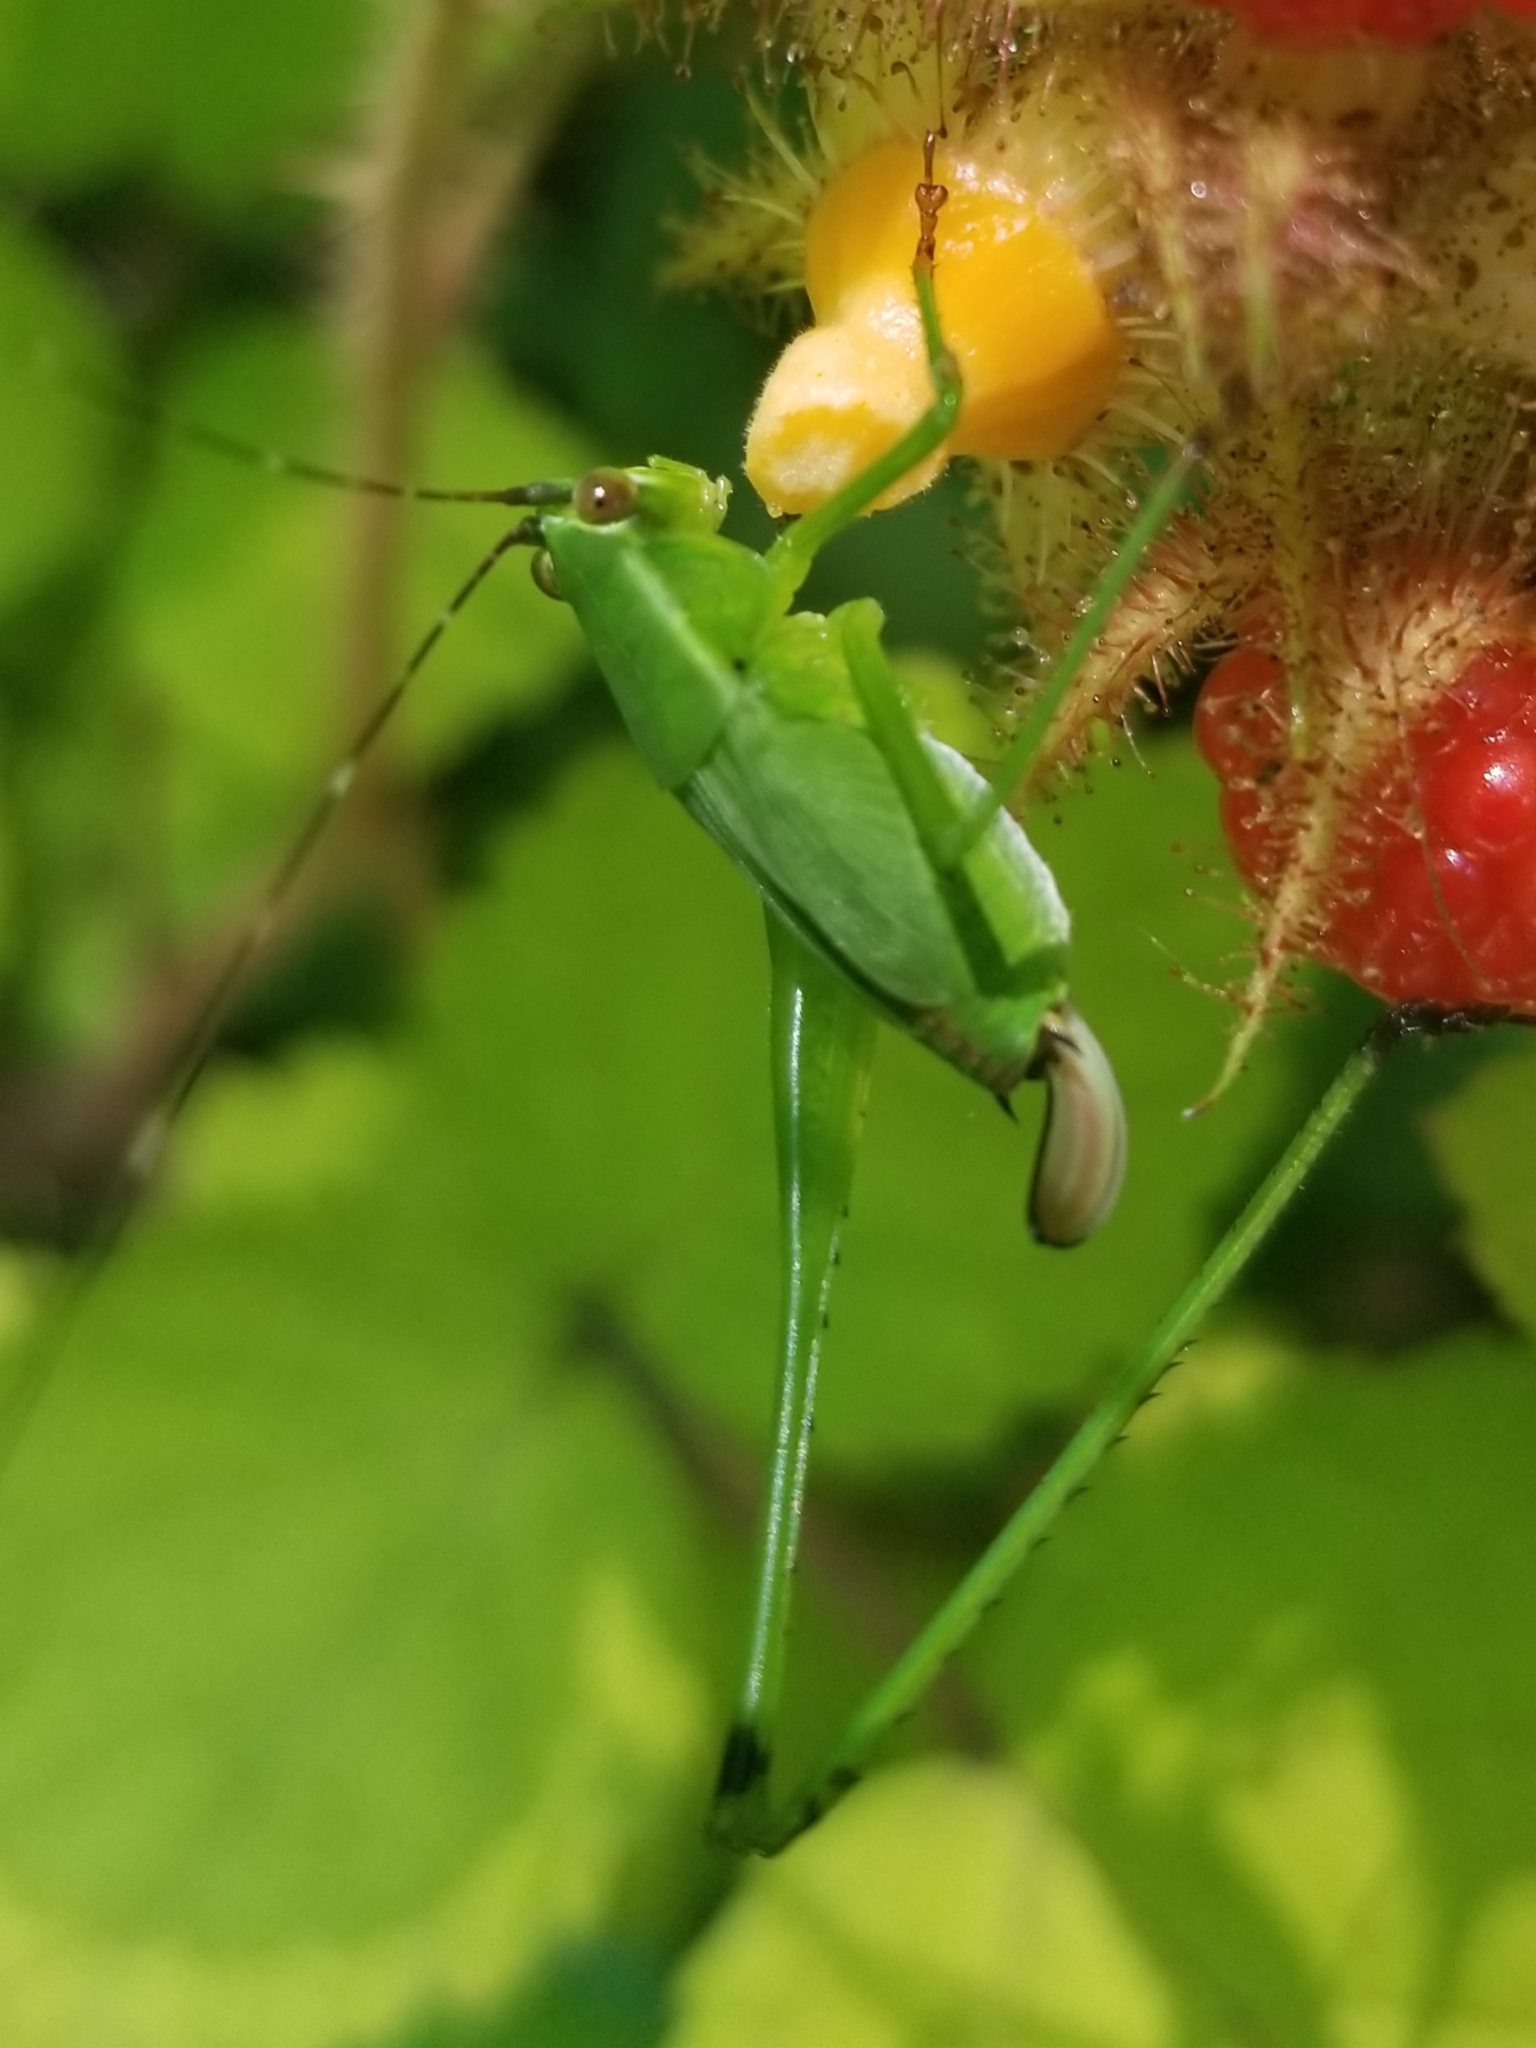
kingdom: Animalia
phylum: Arthropoda
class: Insecta
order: Orthoptera
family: Tettigoniidae
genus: Scudderia
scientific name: Scudderia furcata
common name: Fork-tailed bush katydid
